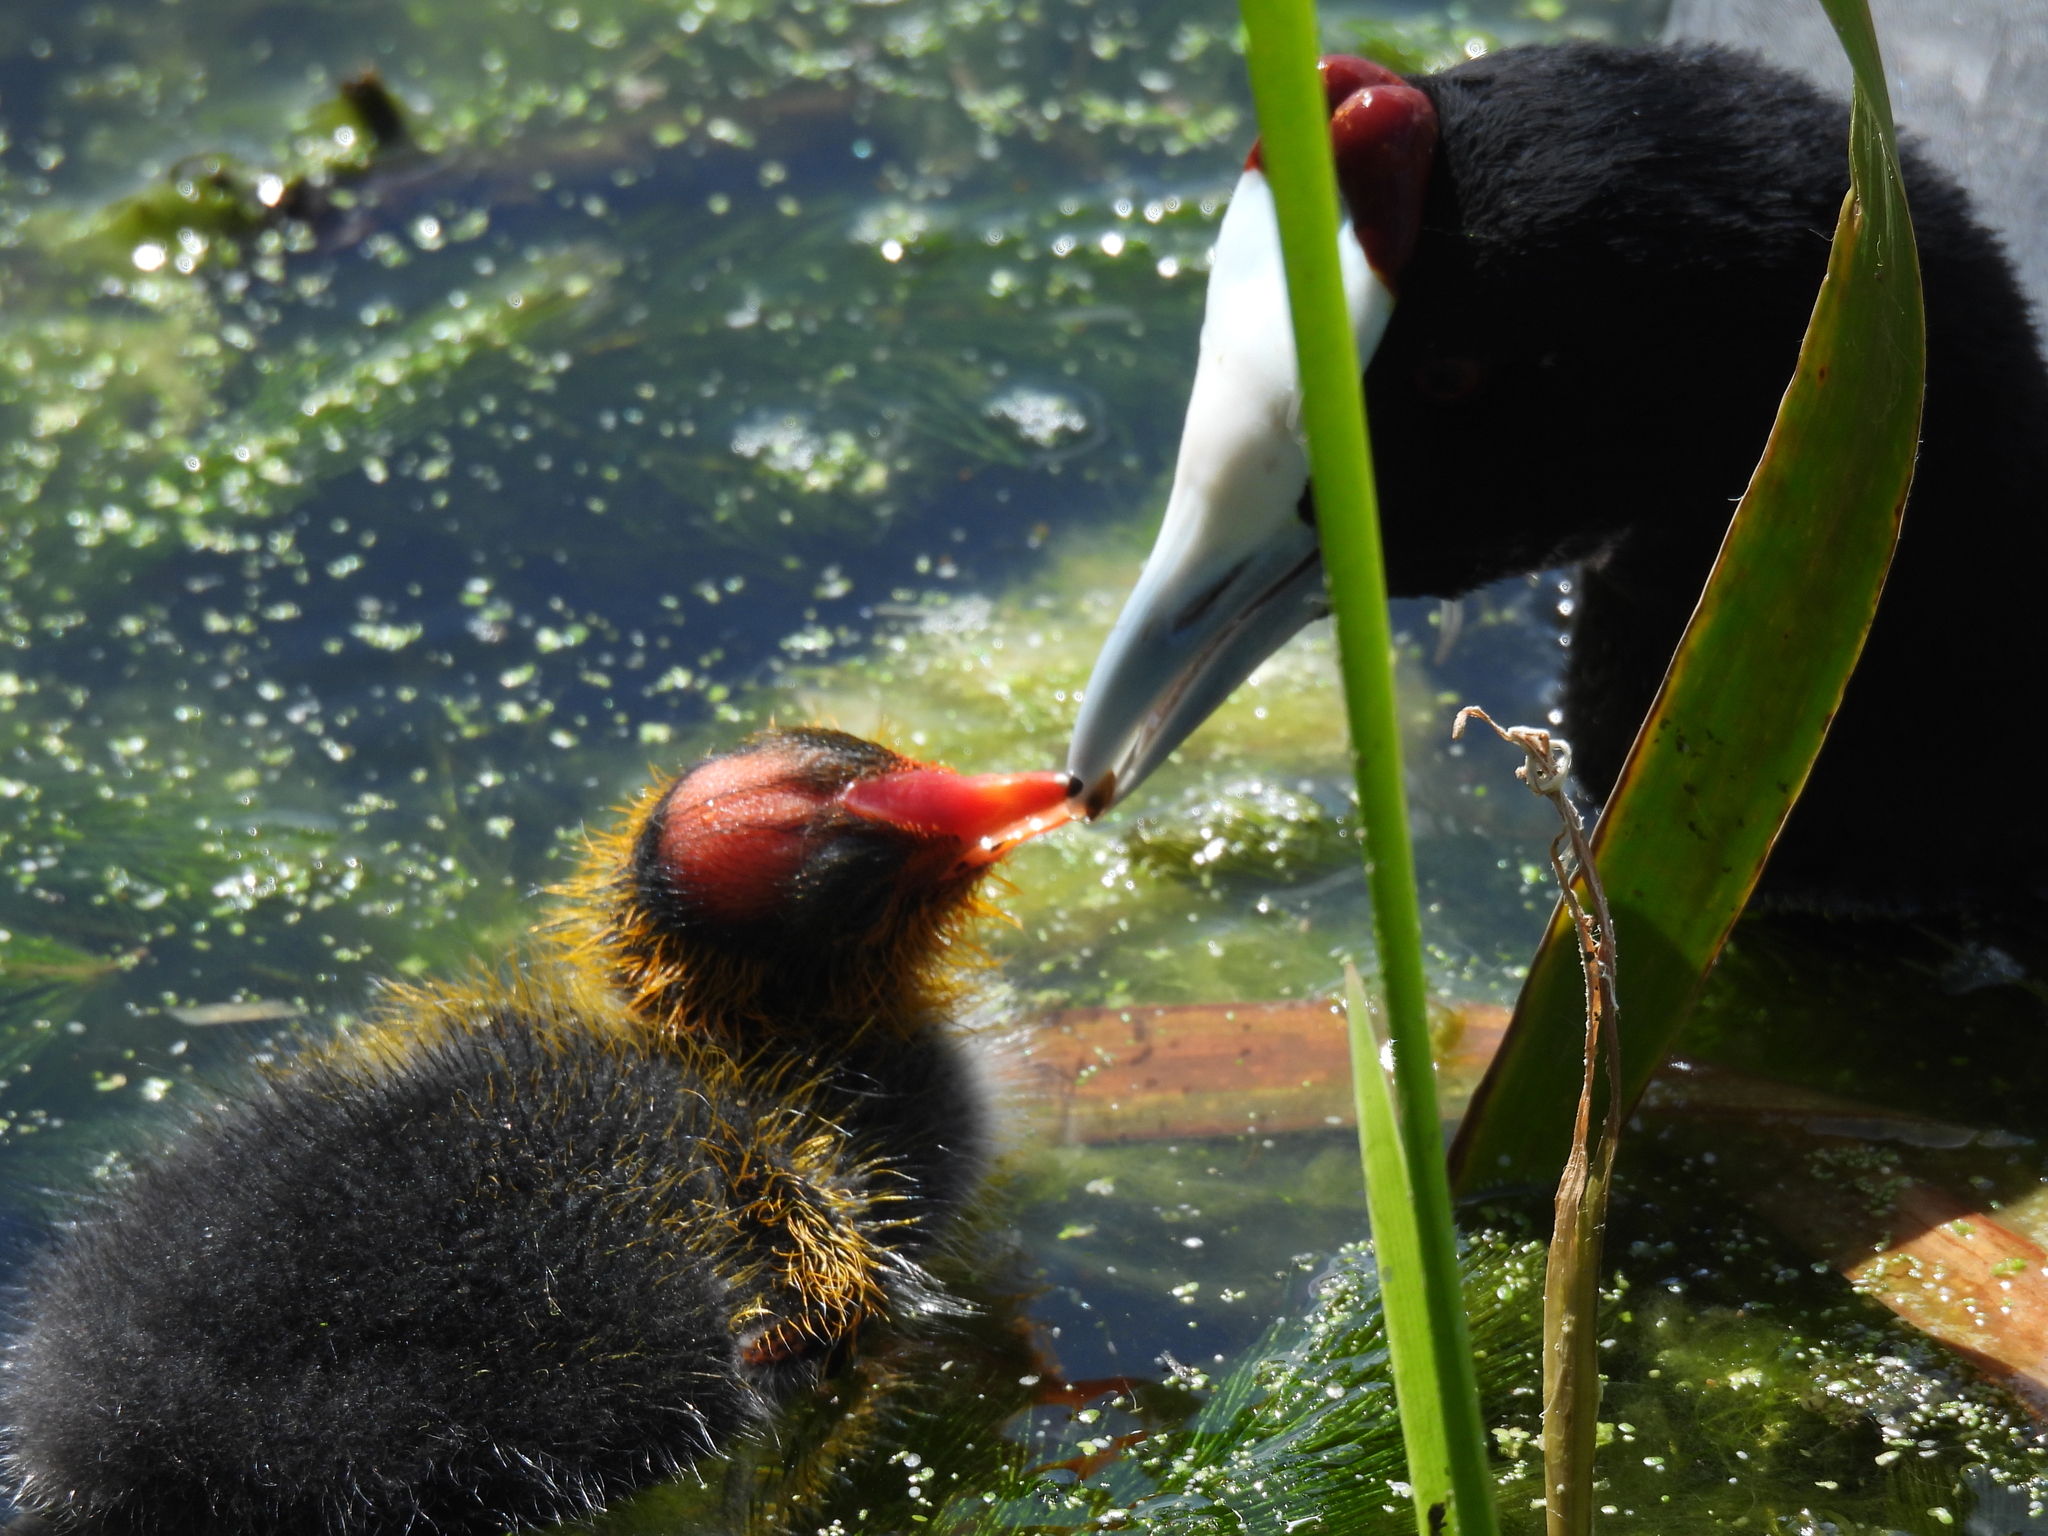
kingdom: Animalia
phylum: Chordata
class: Aves
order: Gruiformes
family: Rallidae
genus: Fulica
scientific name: Fulica cristata
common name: Red-knobbed coot
